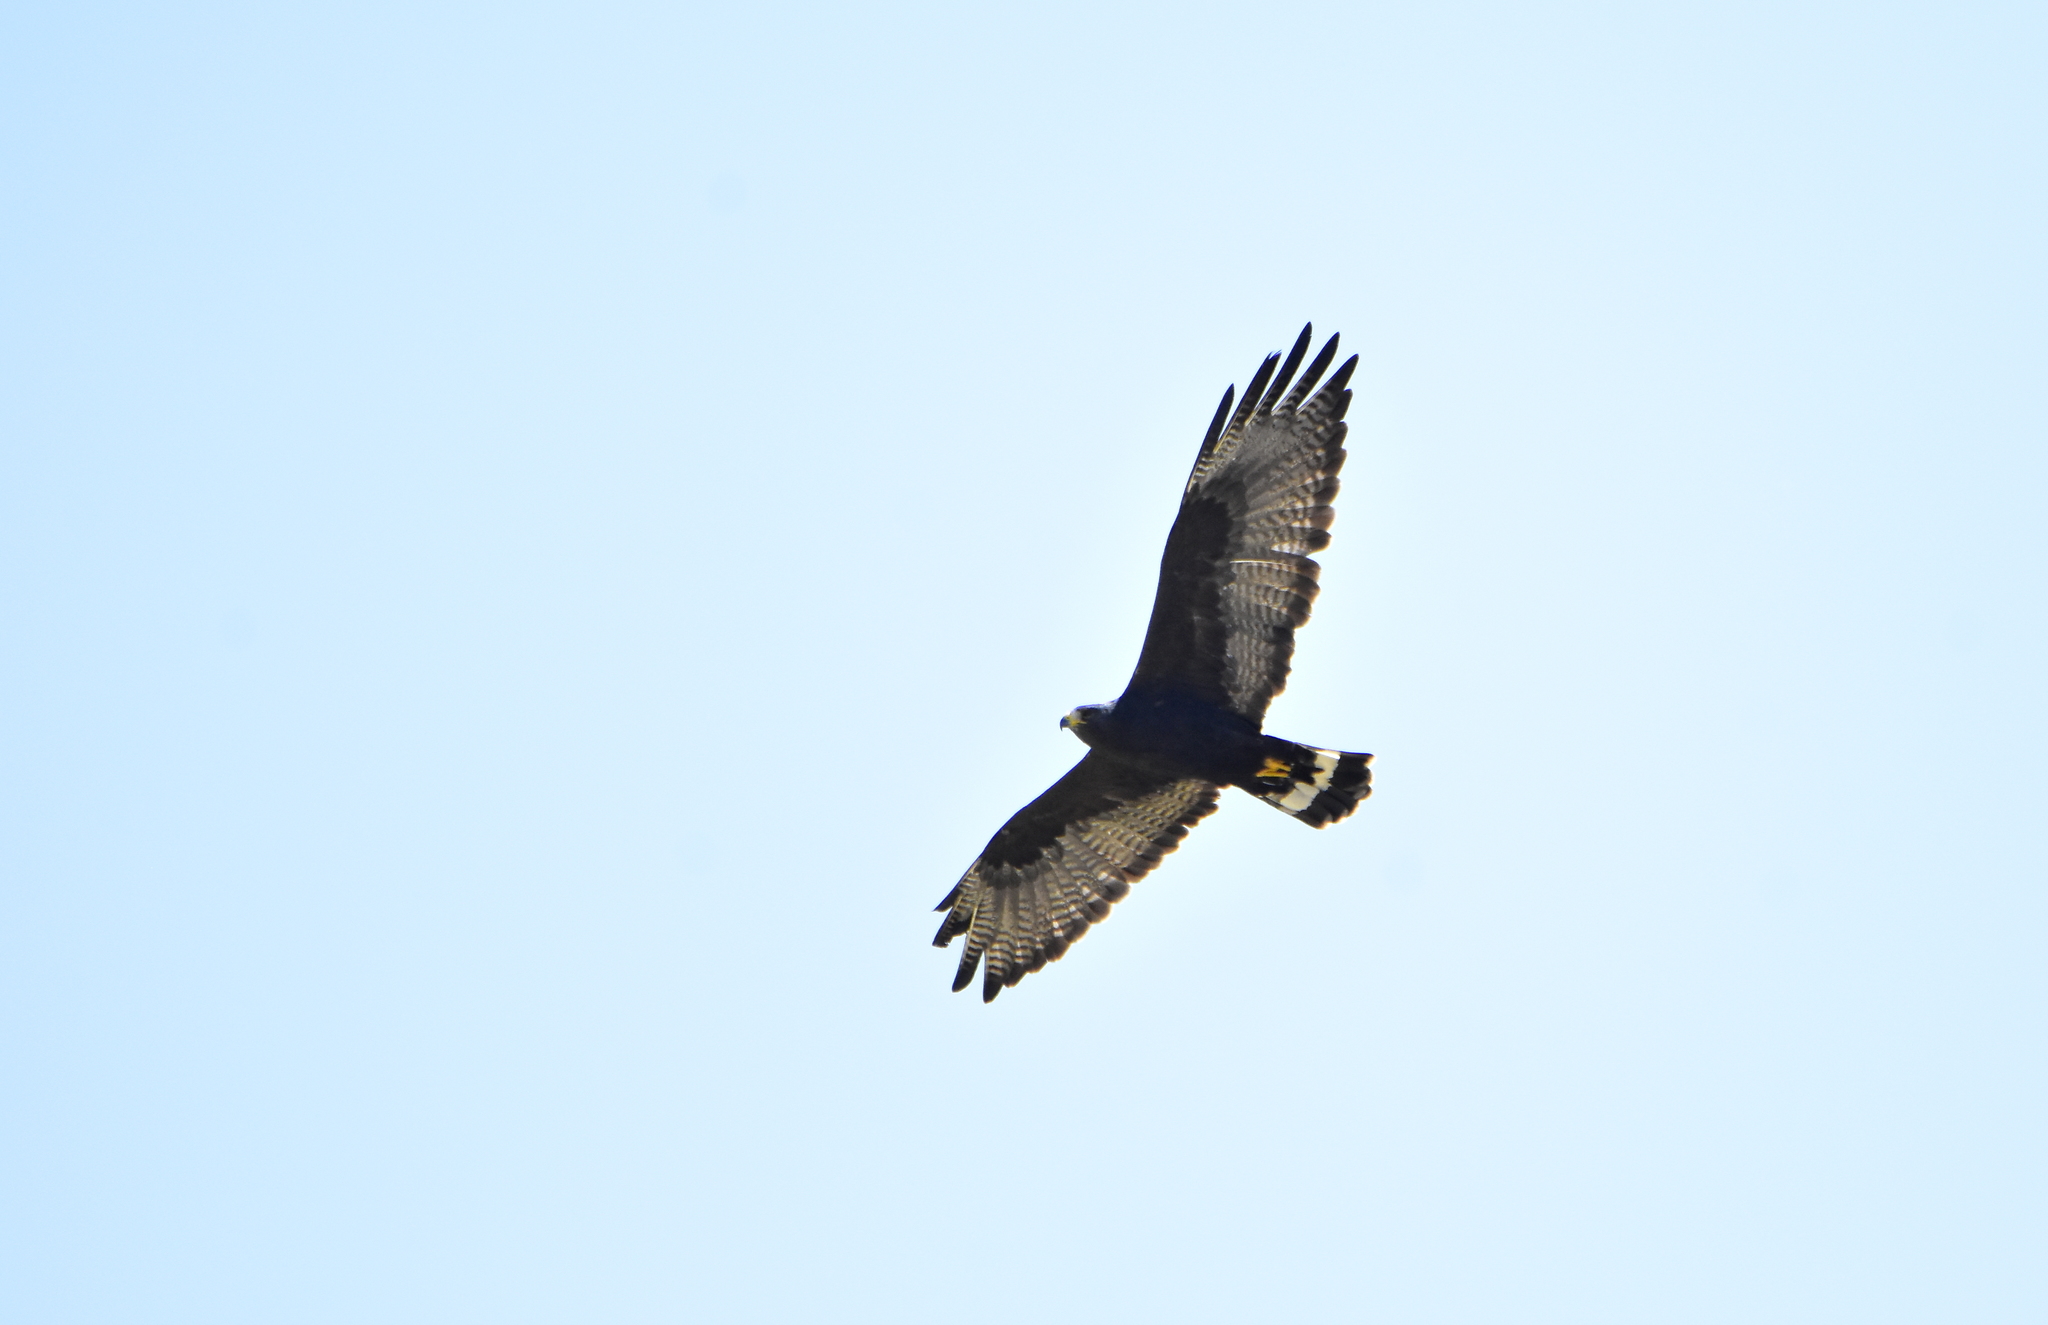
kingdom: Animalia
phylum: Chordata
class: Aves
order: Accipitriformes
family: Accipitridae
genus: Buteo
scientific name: Buteo albonotatus
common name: Zone-tailed hawk
